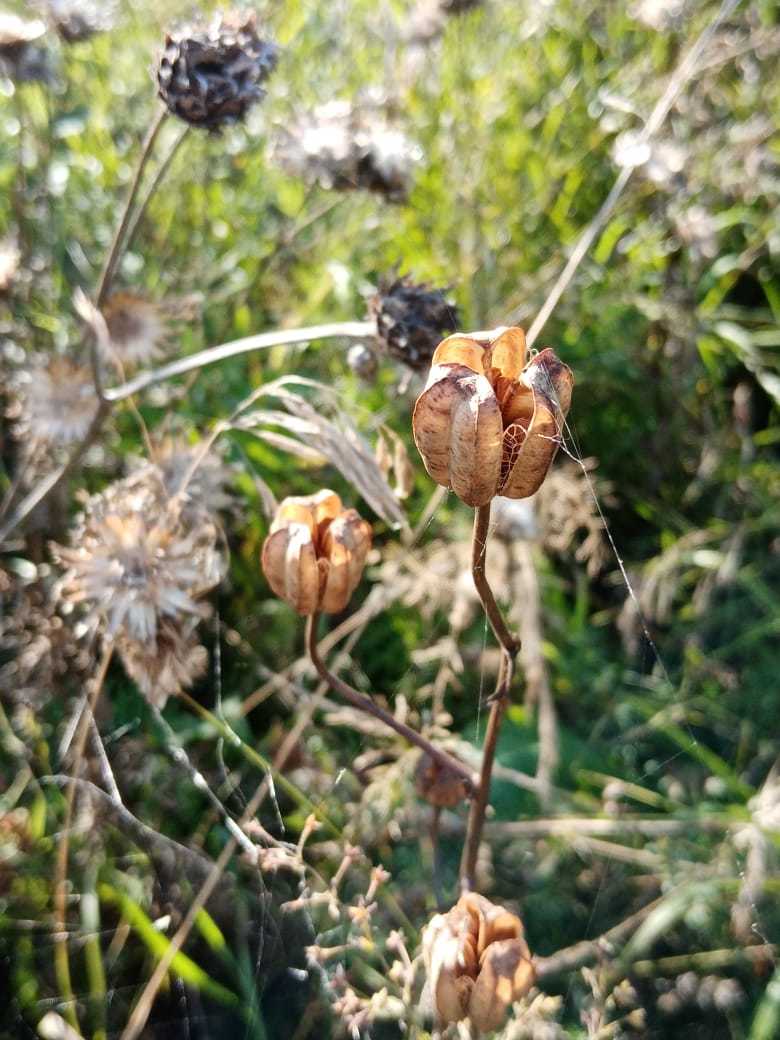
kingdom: Plantae
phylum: Tracheophyta
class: Liliopsida
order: Liliales
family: Liliaceae
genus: Lilium
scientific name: Lilium martagon
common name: Martagon lily
